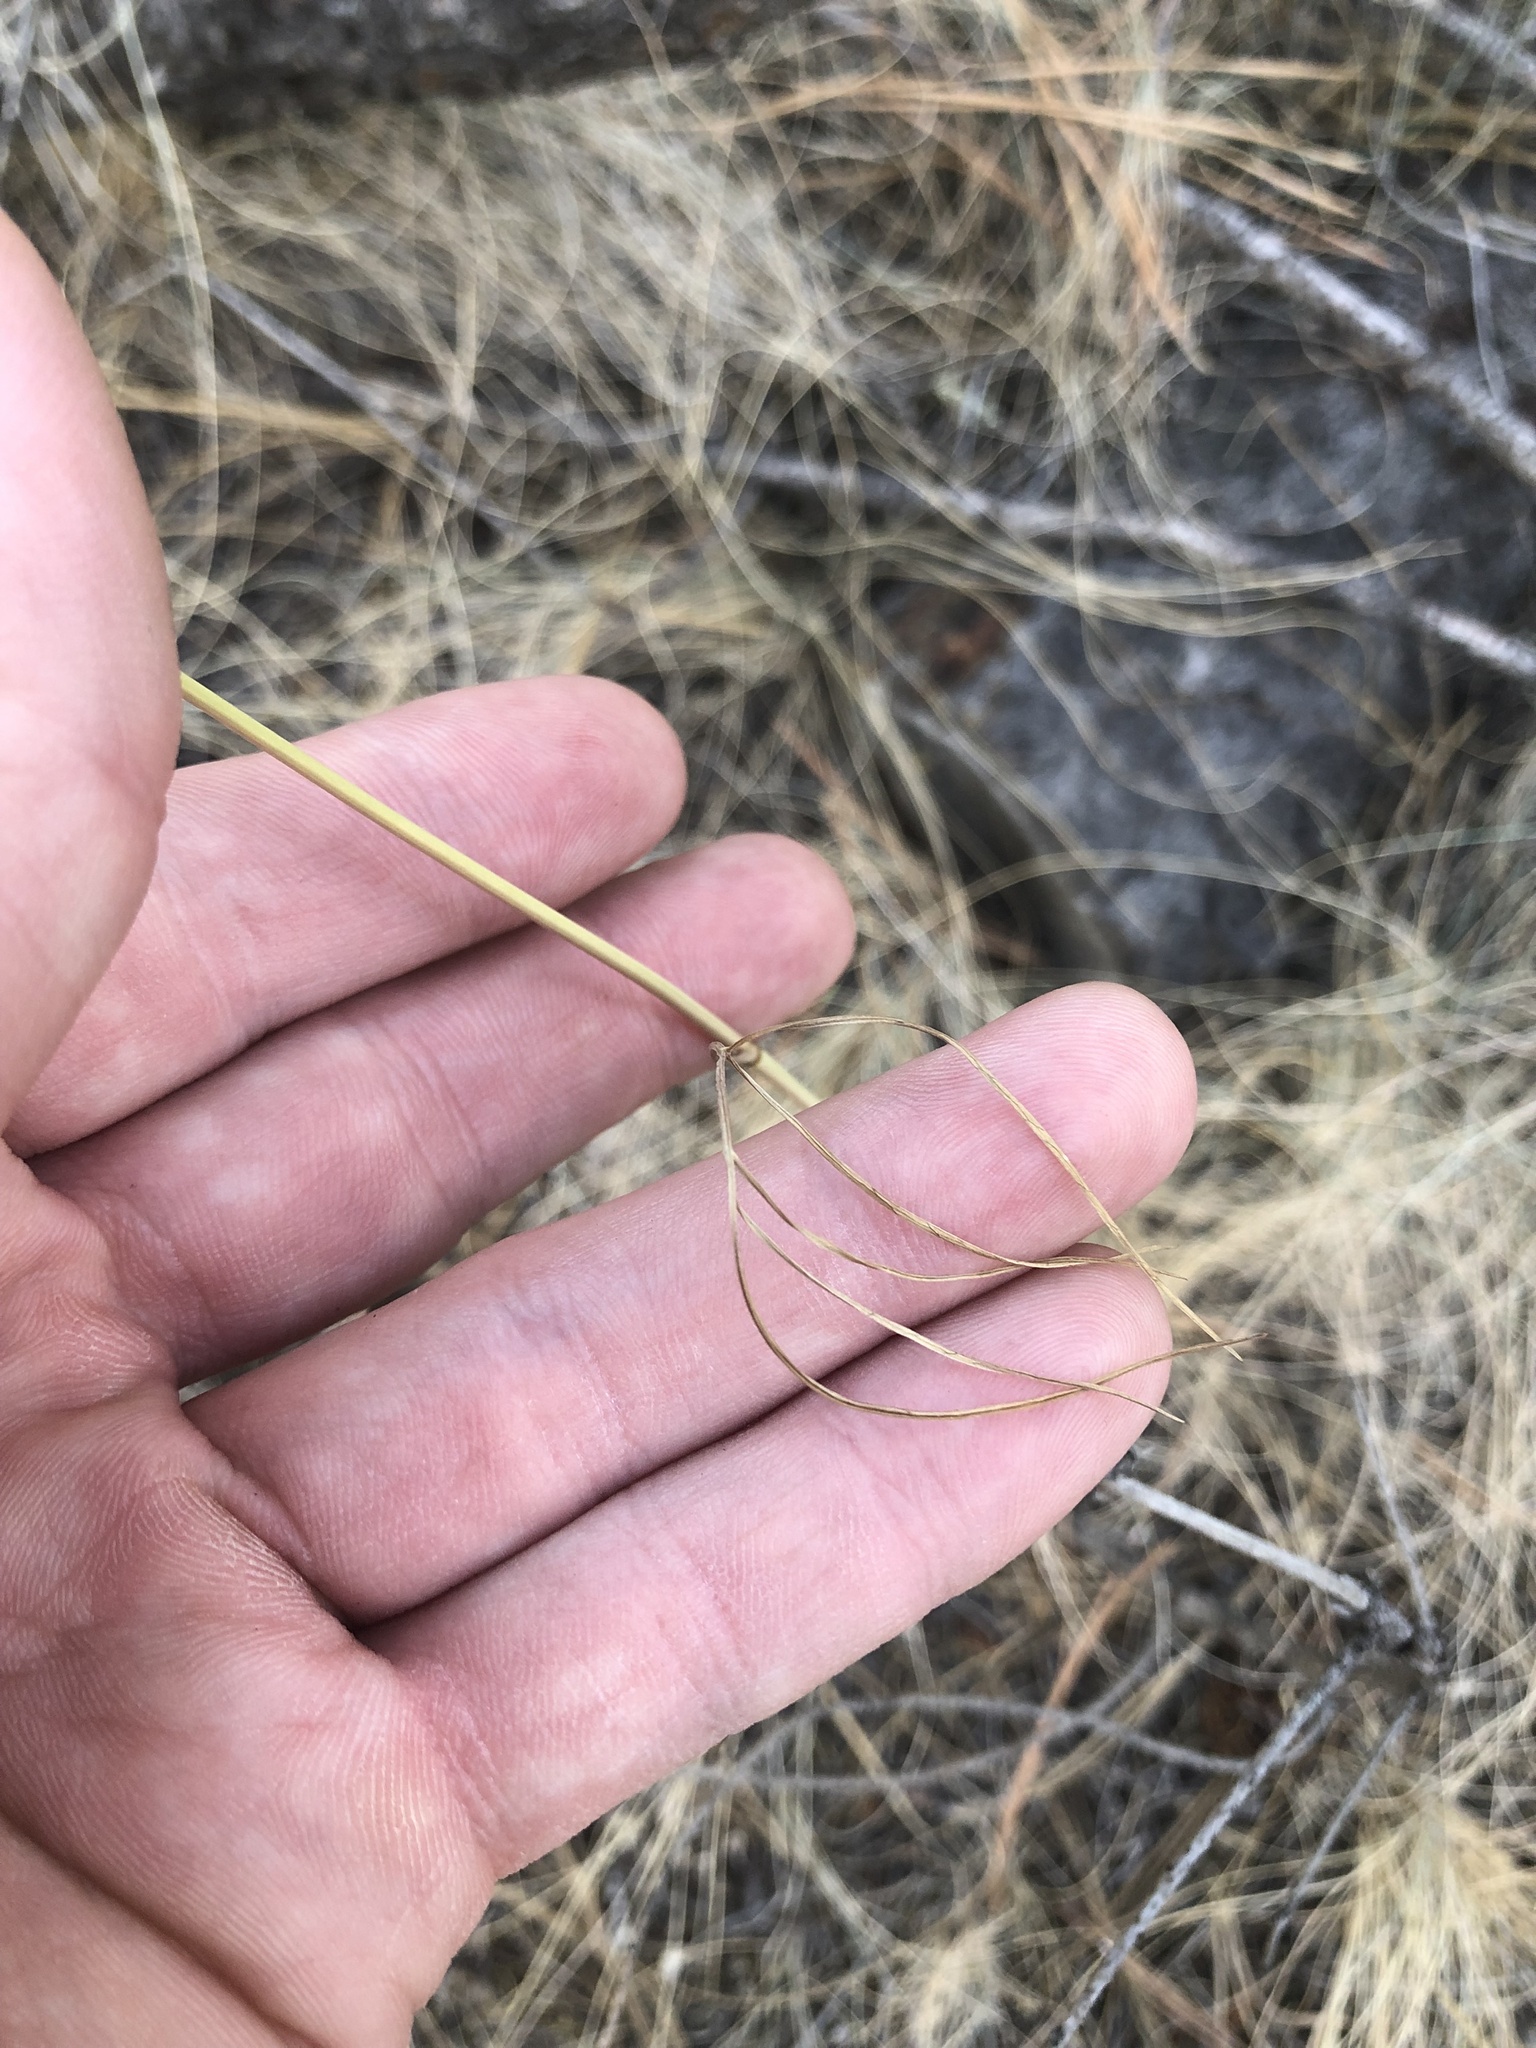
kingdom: Plantae
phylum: Tracheophyta
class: Magnoliopsida
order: Apiales
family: Apiaceae
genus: Perideridia
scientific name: Perideridia gairdneri
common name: False caraway
